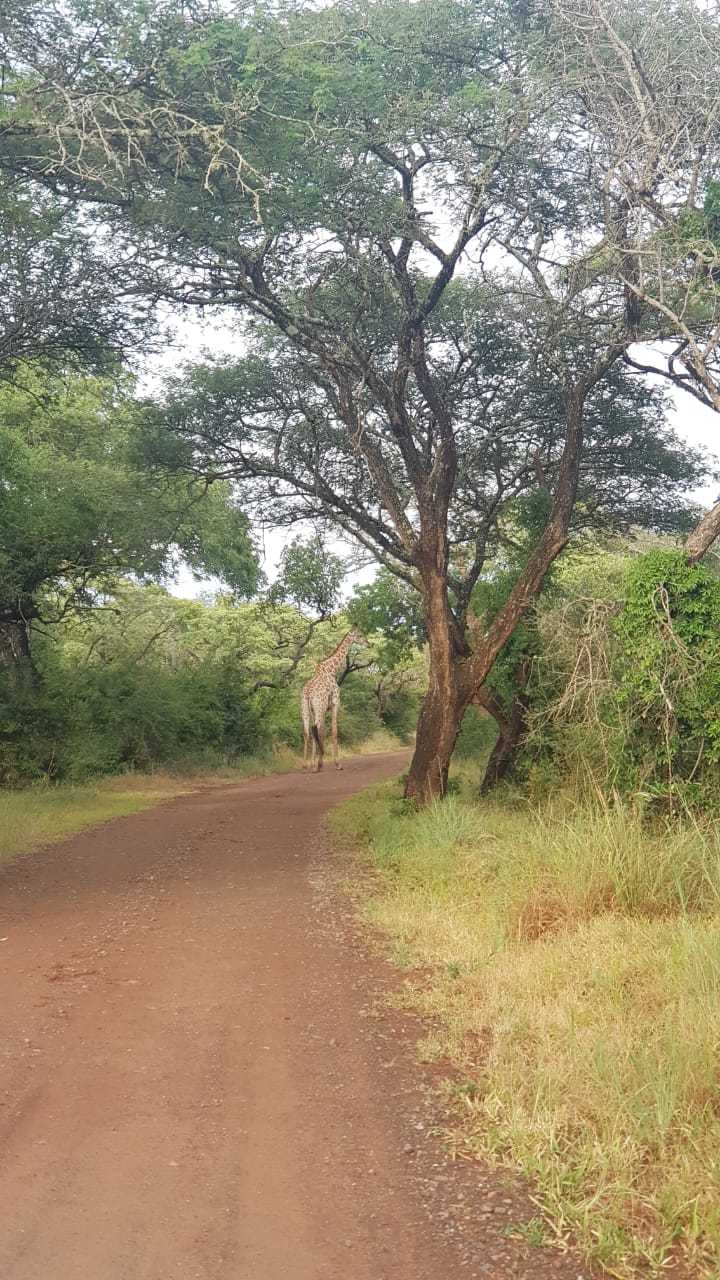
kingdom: Animalia
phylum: Chordata
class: Mammalia
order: Artiodactyla
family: Giraffidae
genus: Giraffa
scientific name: Giraffa giraffa
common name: Southern giraffe
